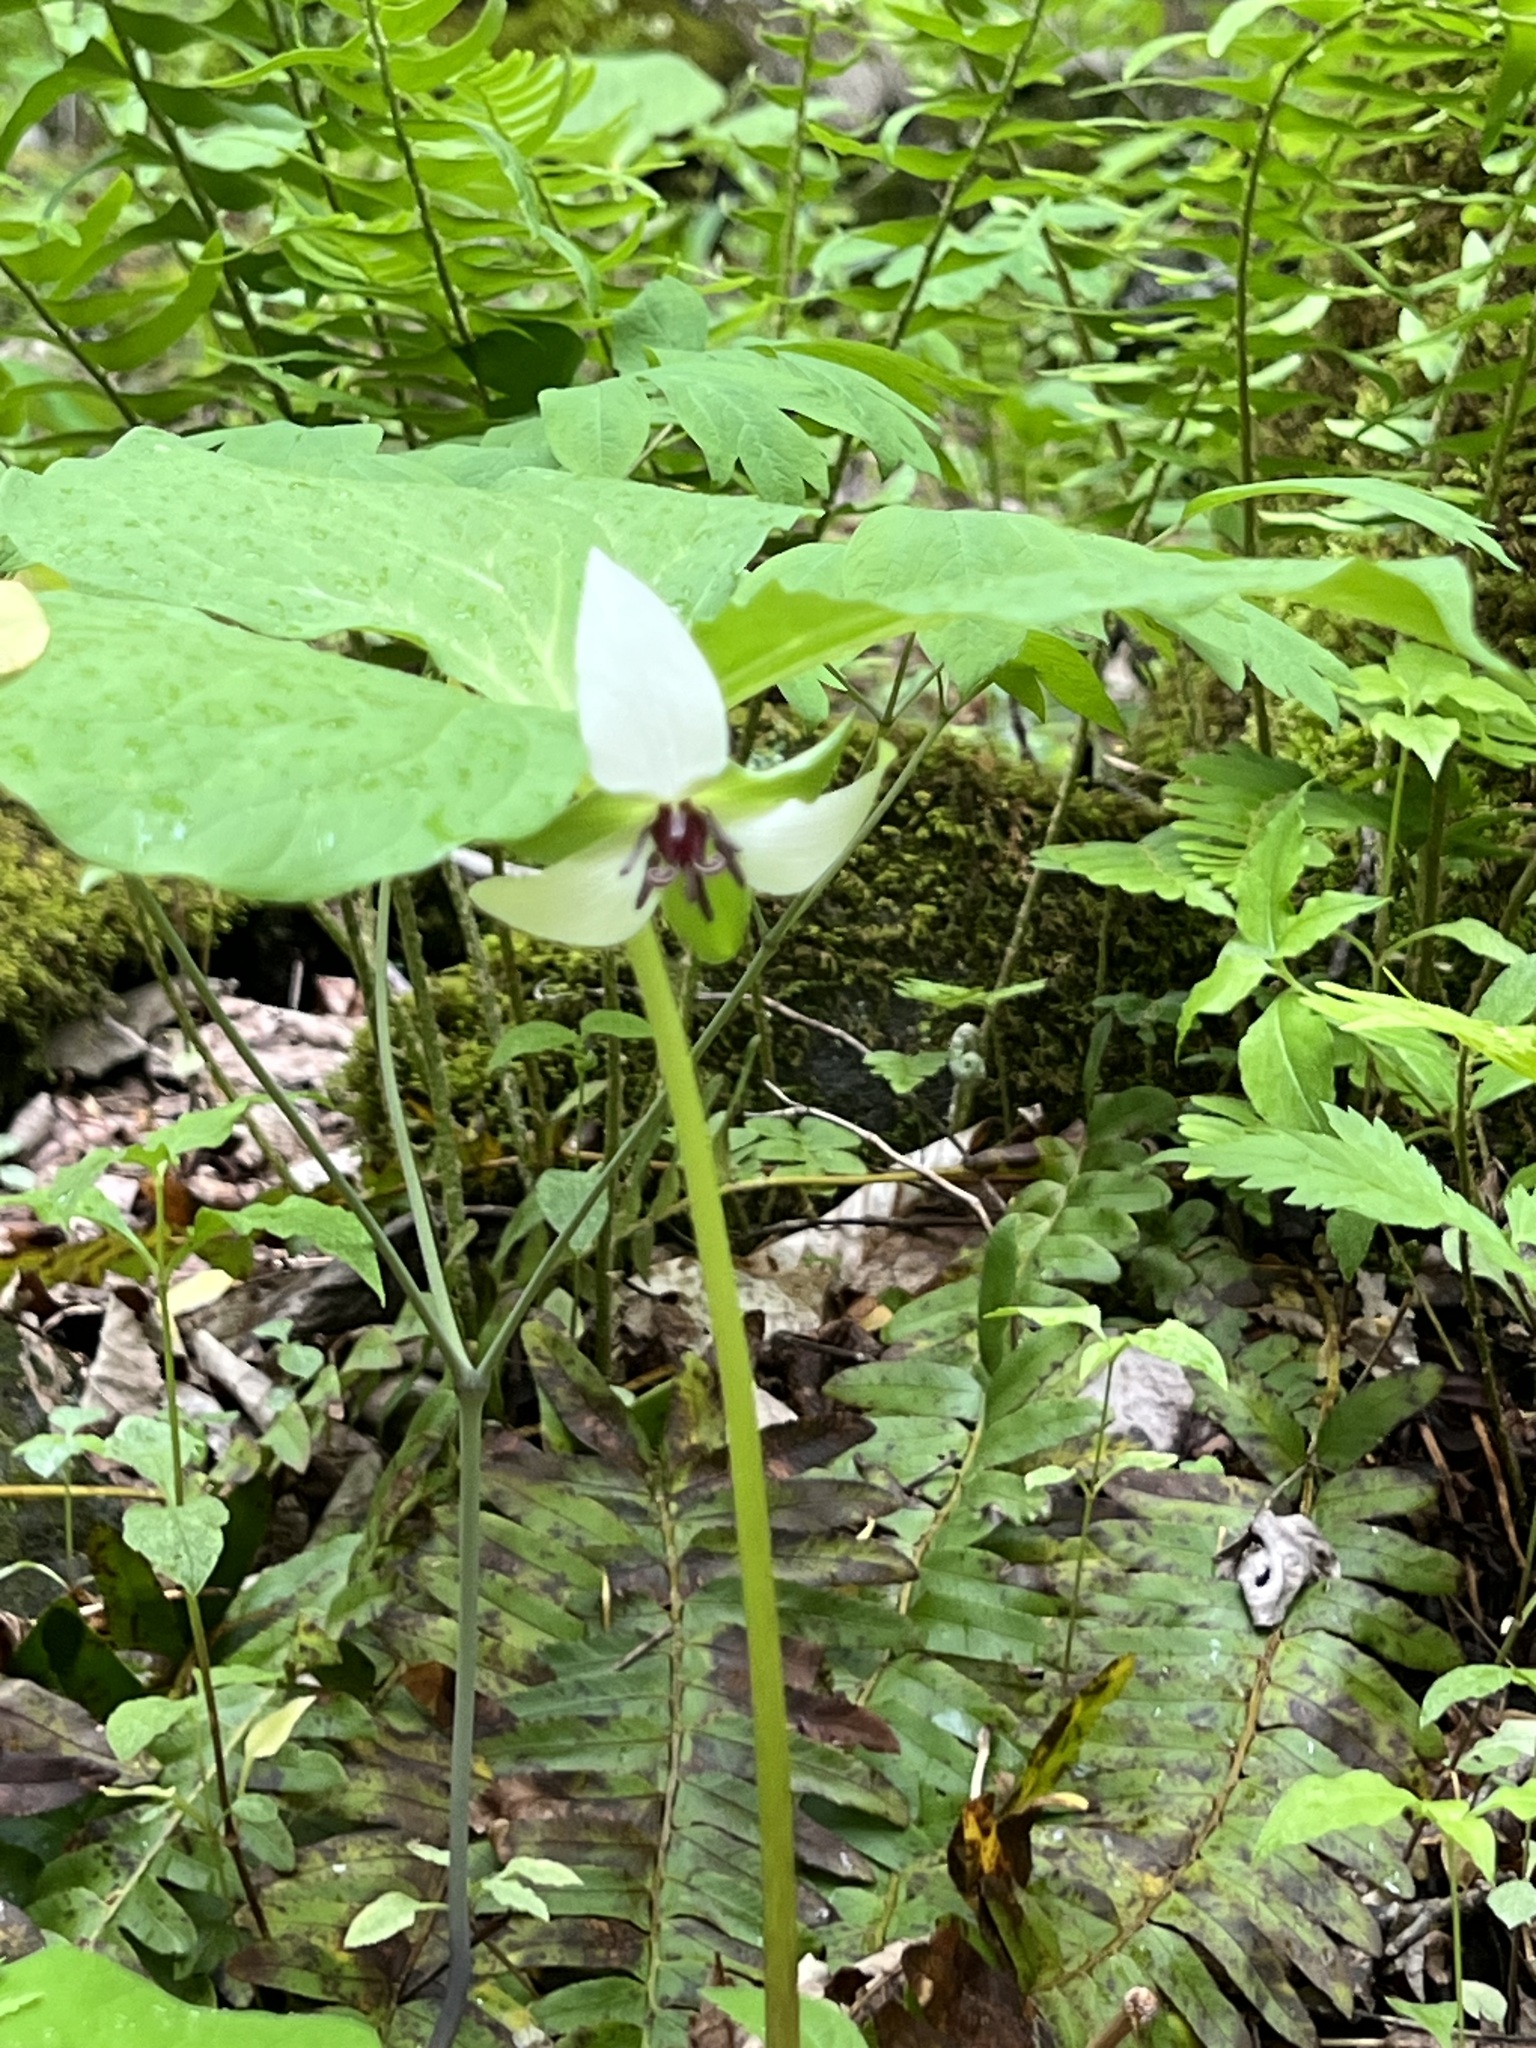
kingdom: Plantae
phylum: Tracheophyta
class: Liliopsida
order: Liliales
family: Melanthiaceae
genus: Trillium
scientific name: Trillium rugelii
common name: Ill-scented trillium
